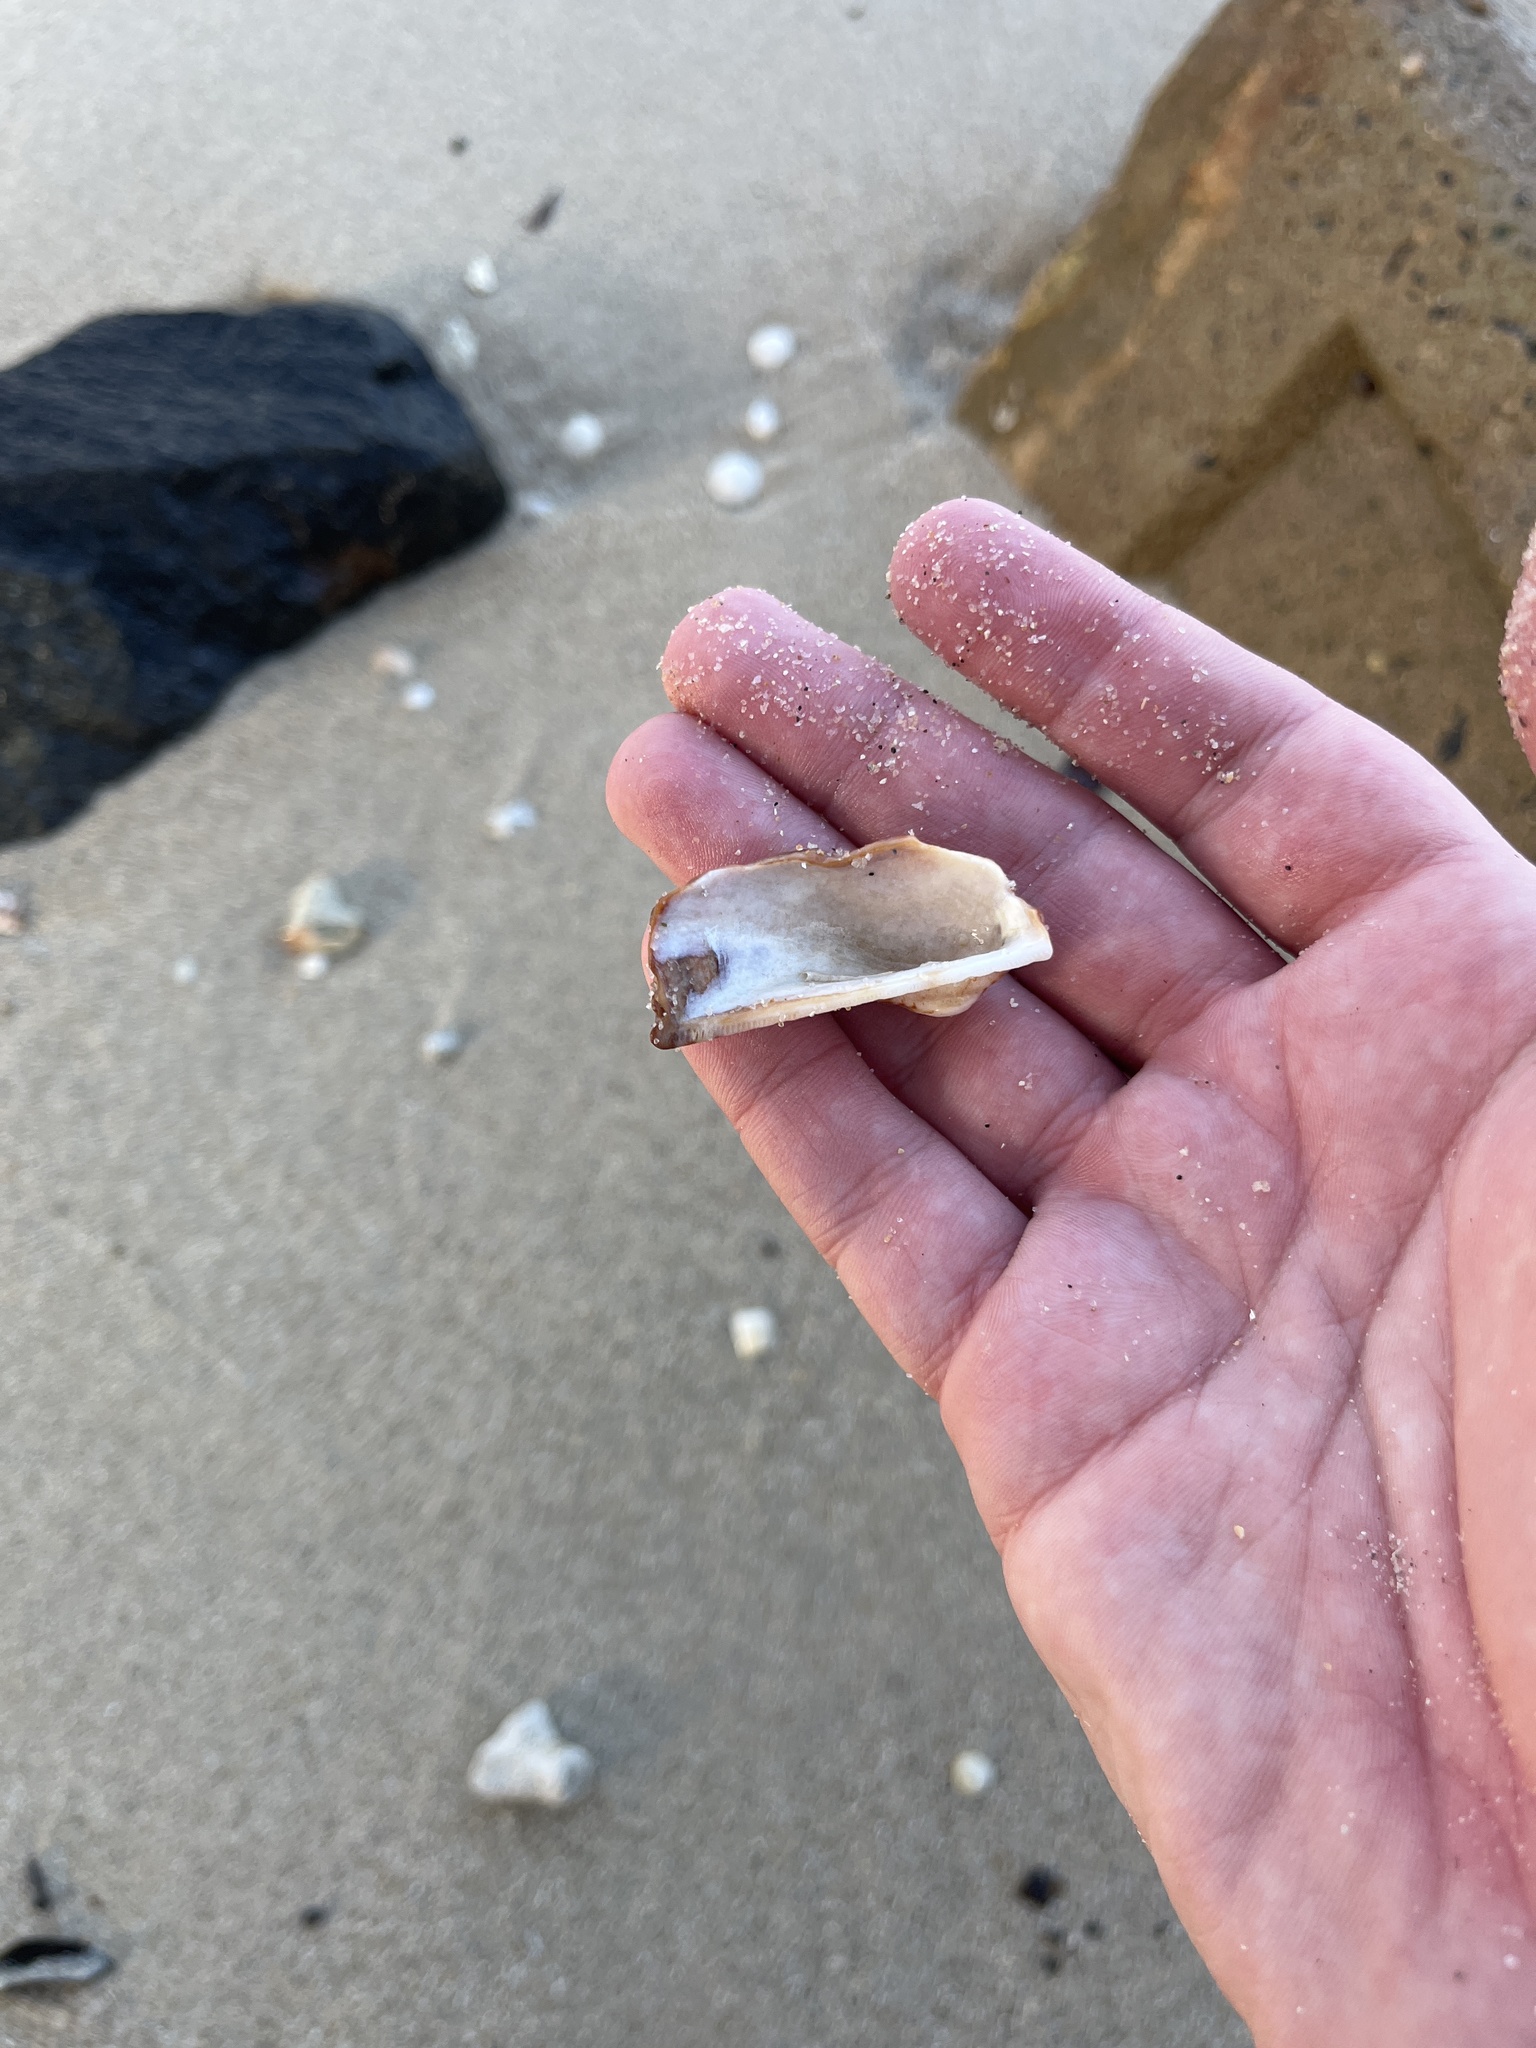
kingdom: Animalia
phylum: Mollusca
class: Bivalvia
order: Arcida
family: Arcidae
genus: Arca
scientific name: Arca zebra
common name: Atlantic turkey wing
